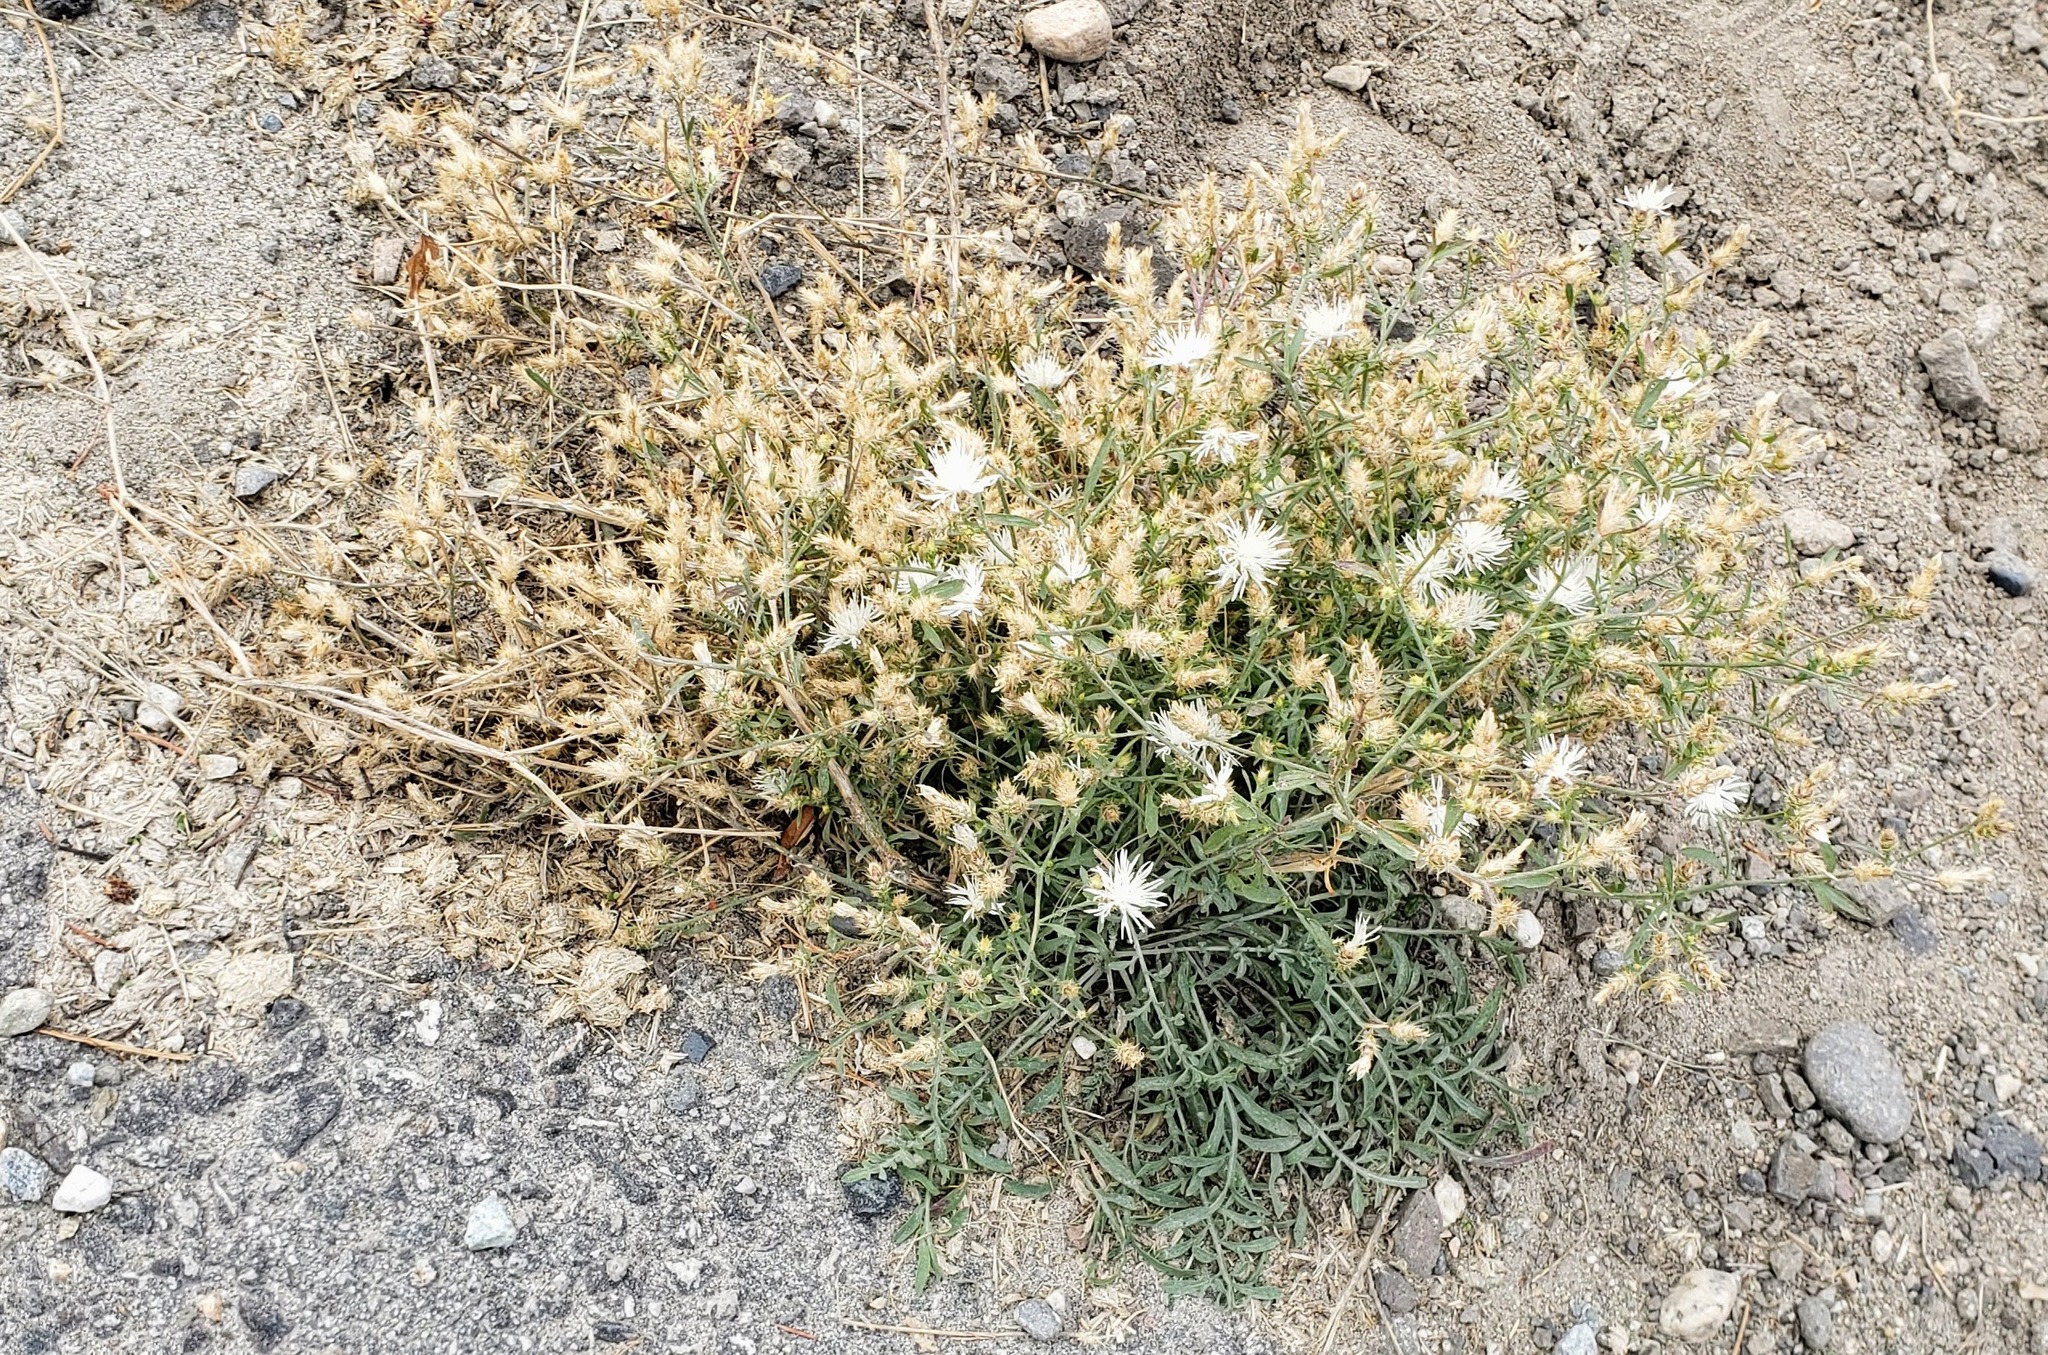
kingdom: Plantae
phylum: Tracheophyta
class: Magnoliopsida
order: Asterales
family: Asteraceae
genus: Centaurea
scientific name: Centaurea diffusa
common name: Diffuse knapweed
